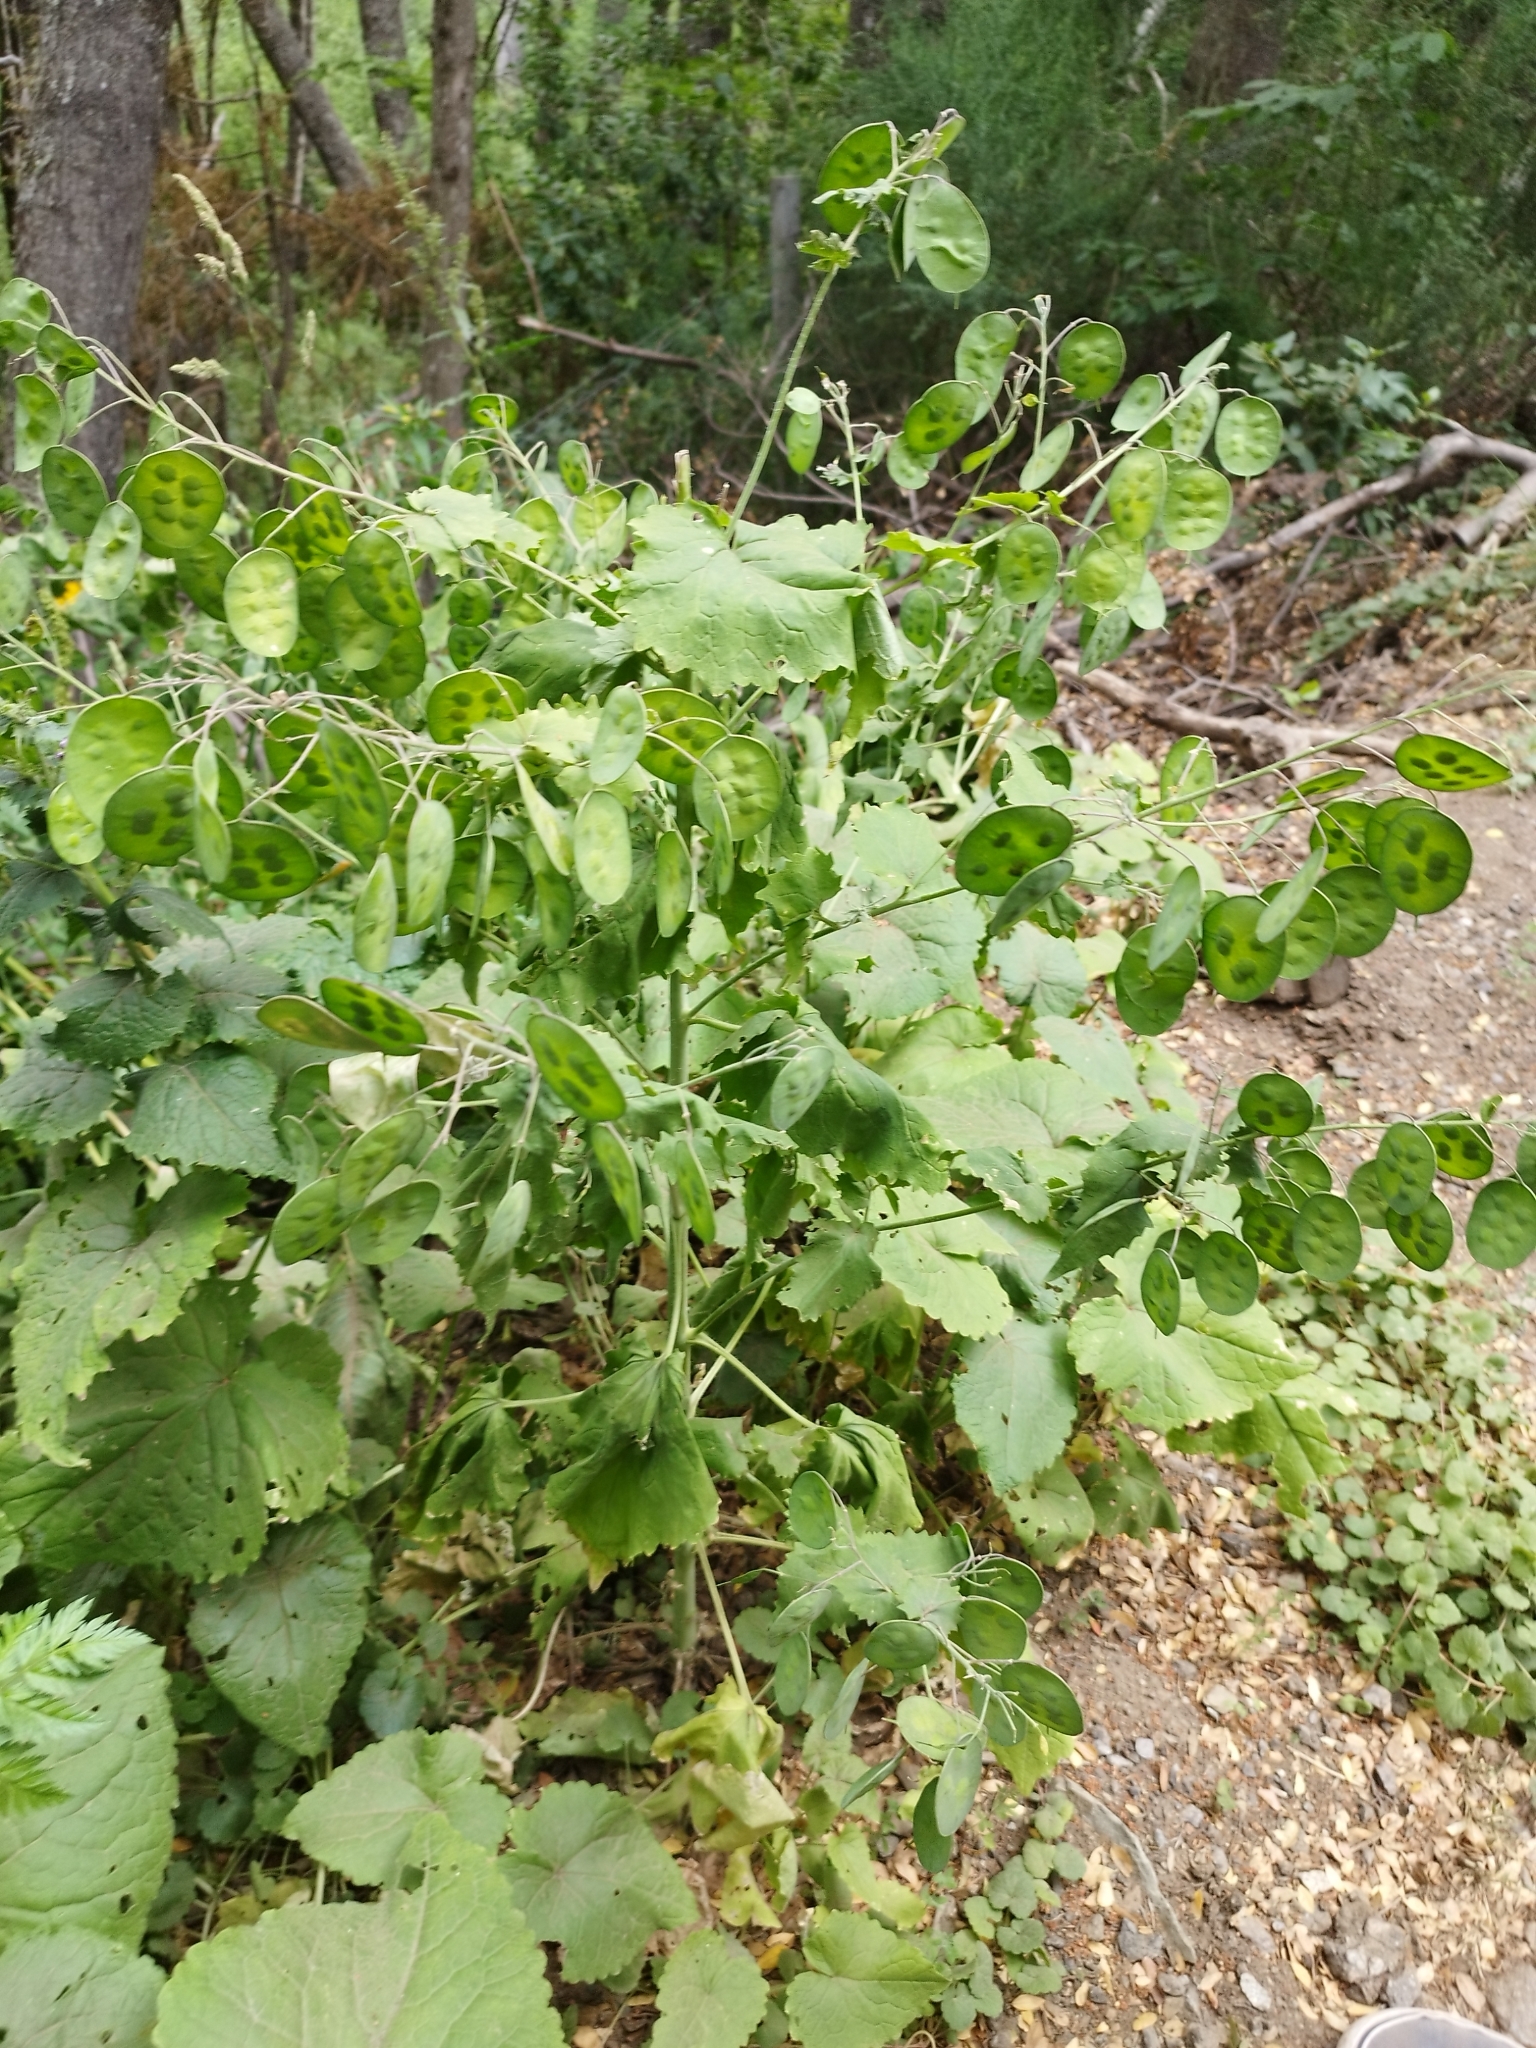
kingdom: Plantae
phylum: Tracheophyta
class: Magnoliopsida
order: Brassicales
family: Brassicaceae
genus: Lunaria
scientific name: Lunaria annua
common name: Honesty
